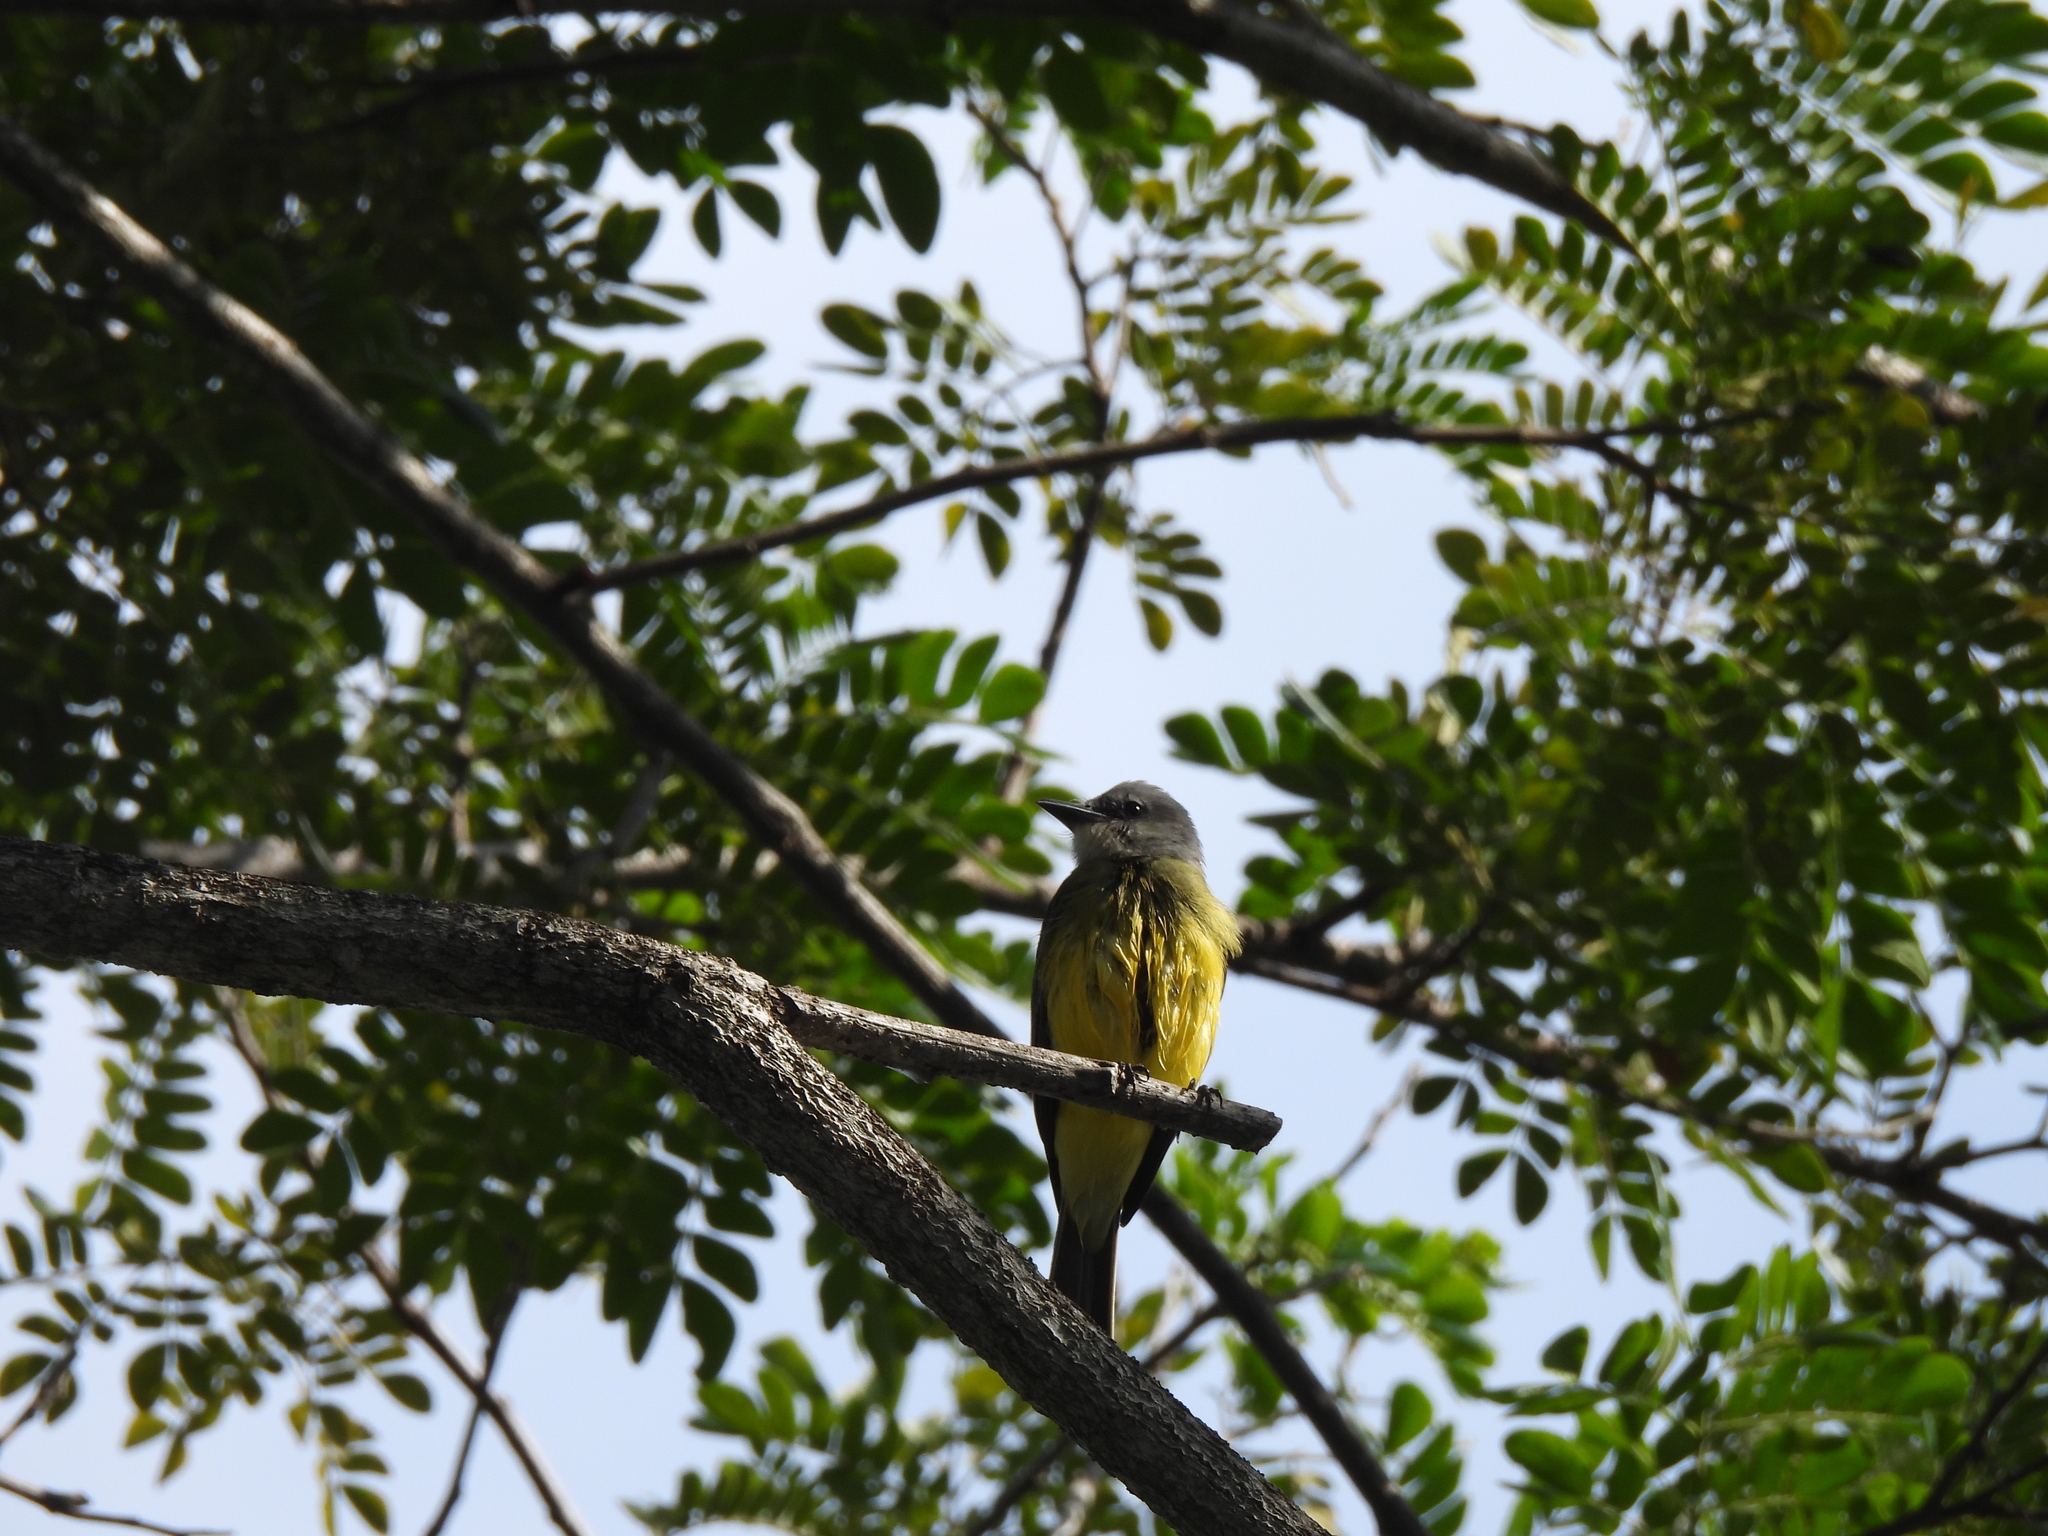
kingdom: Animalia
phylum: Chordata
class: Aves
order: Passeriformes
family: Tyrannidae
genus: Tyrannus
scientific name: Tyrannus melancholicus
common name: Tropical kingbird
